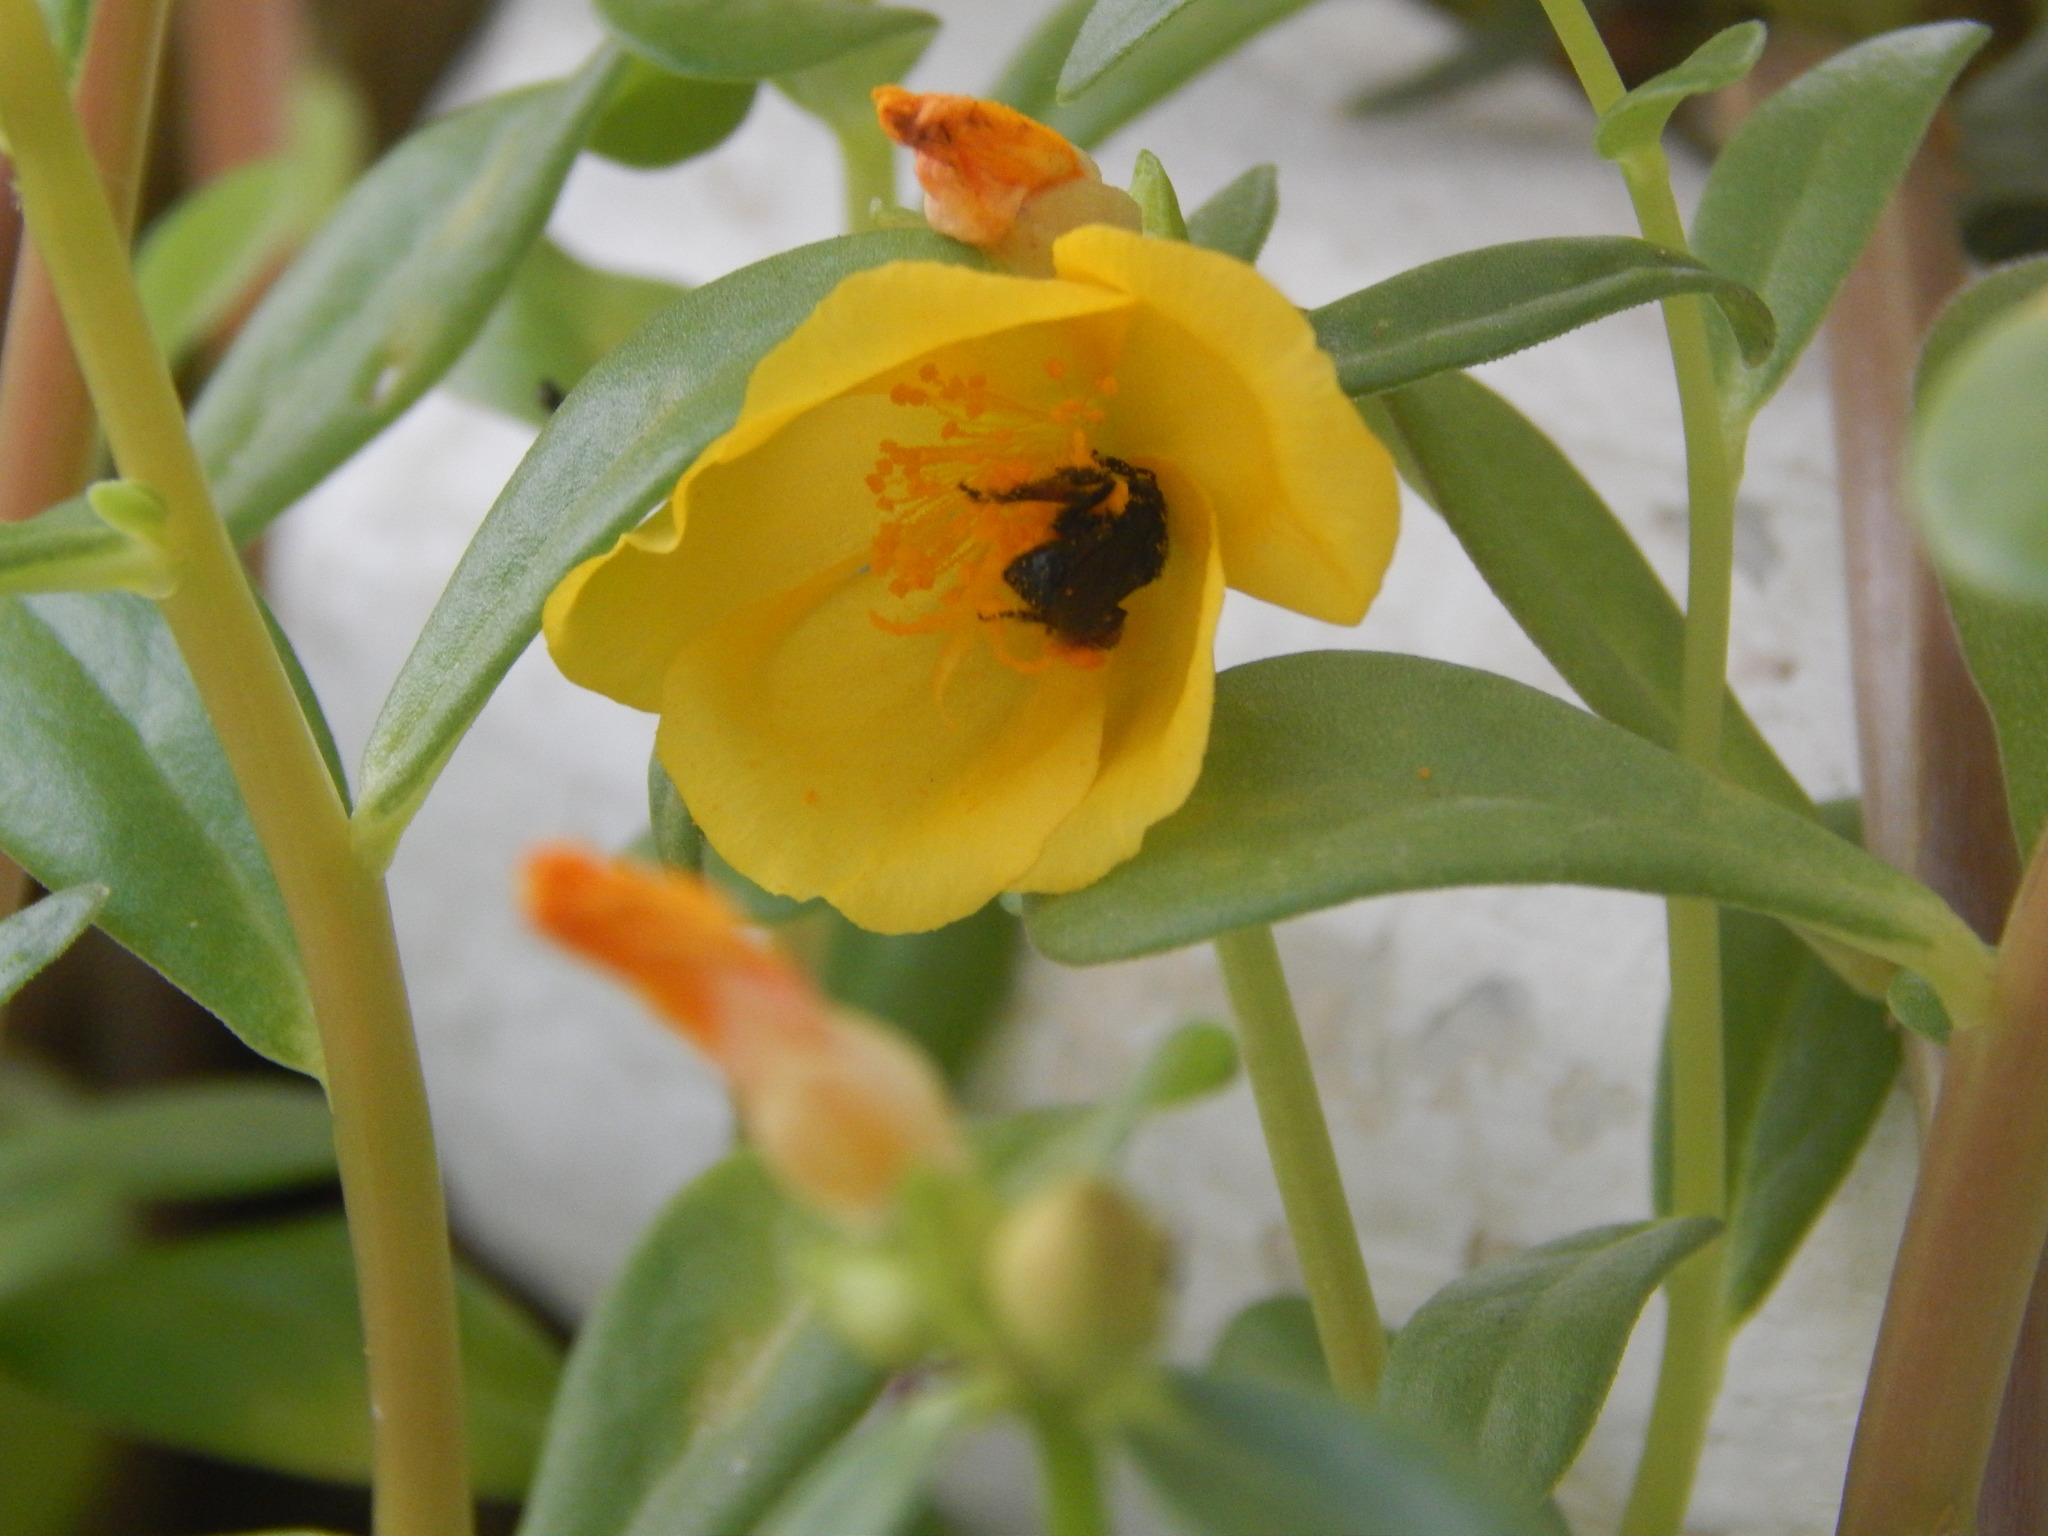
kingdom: Animalia
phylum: Arthropoda
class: Insecta
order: Hymenoptera
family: Apidae
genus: Trigona
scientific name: Trigona spinipes
